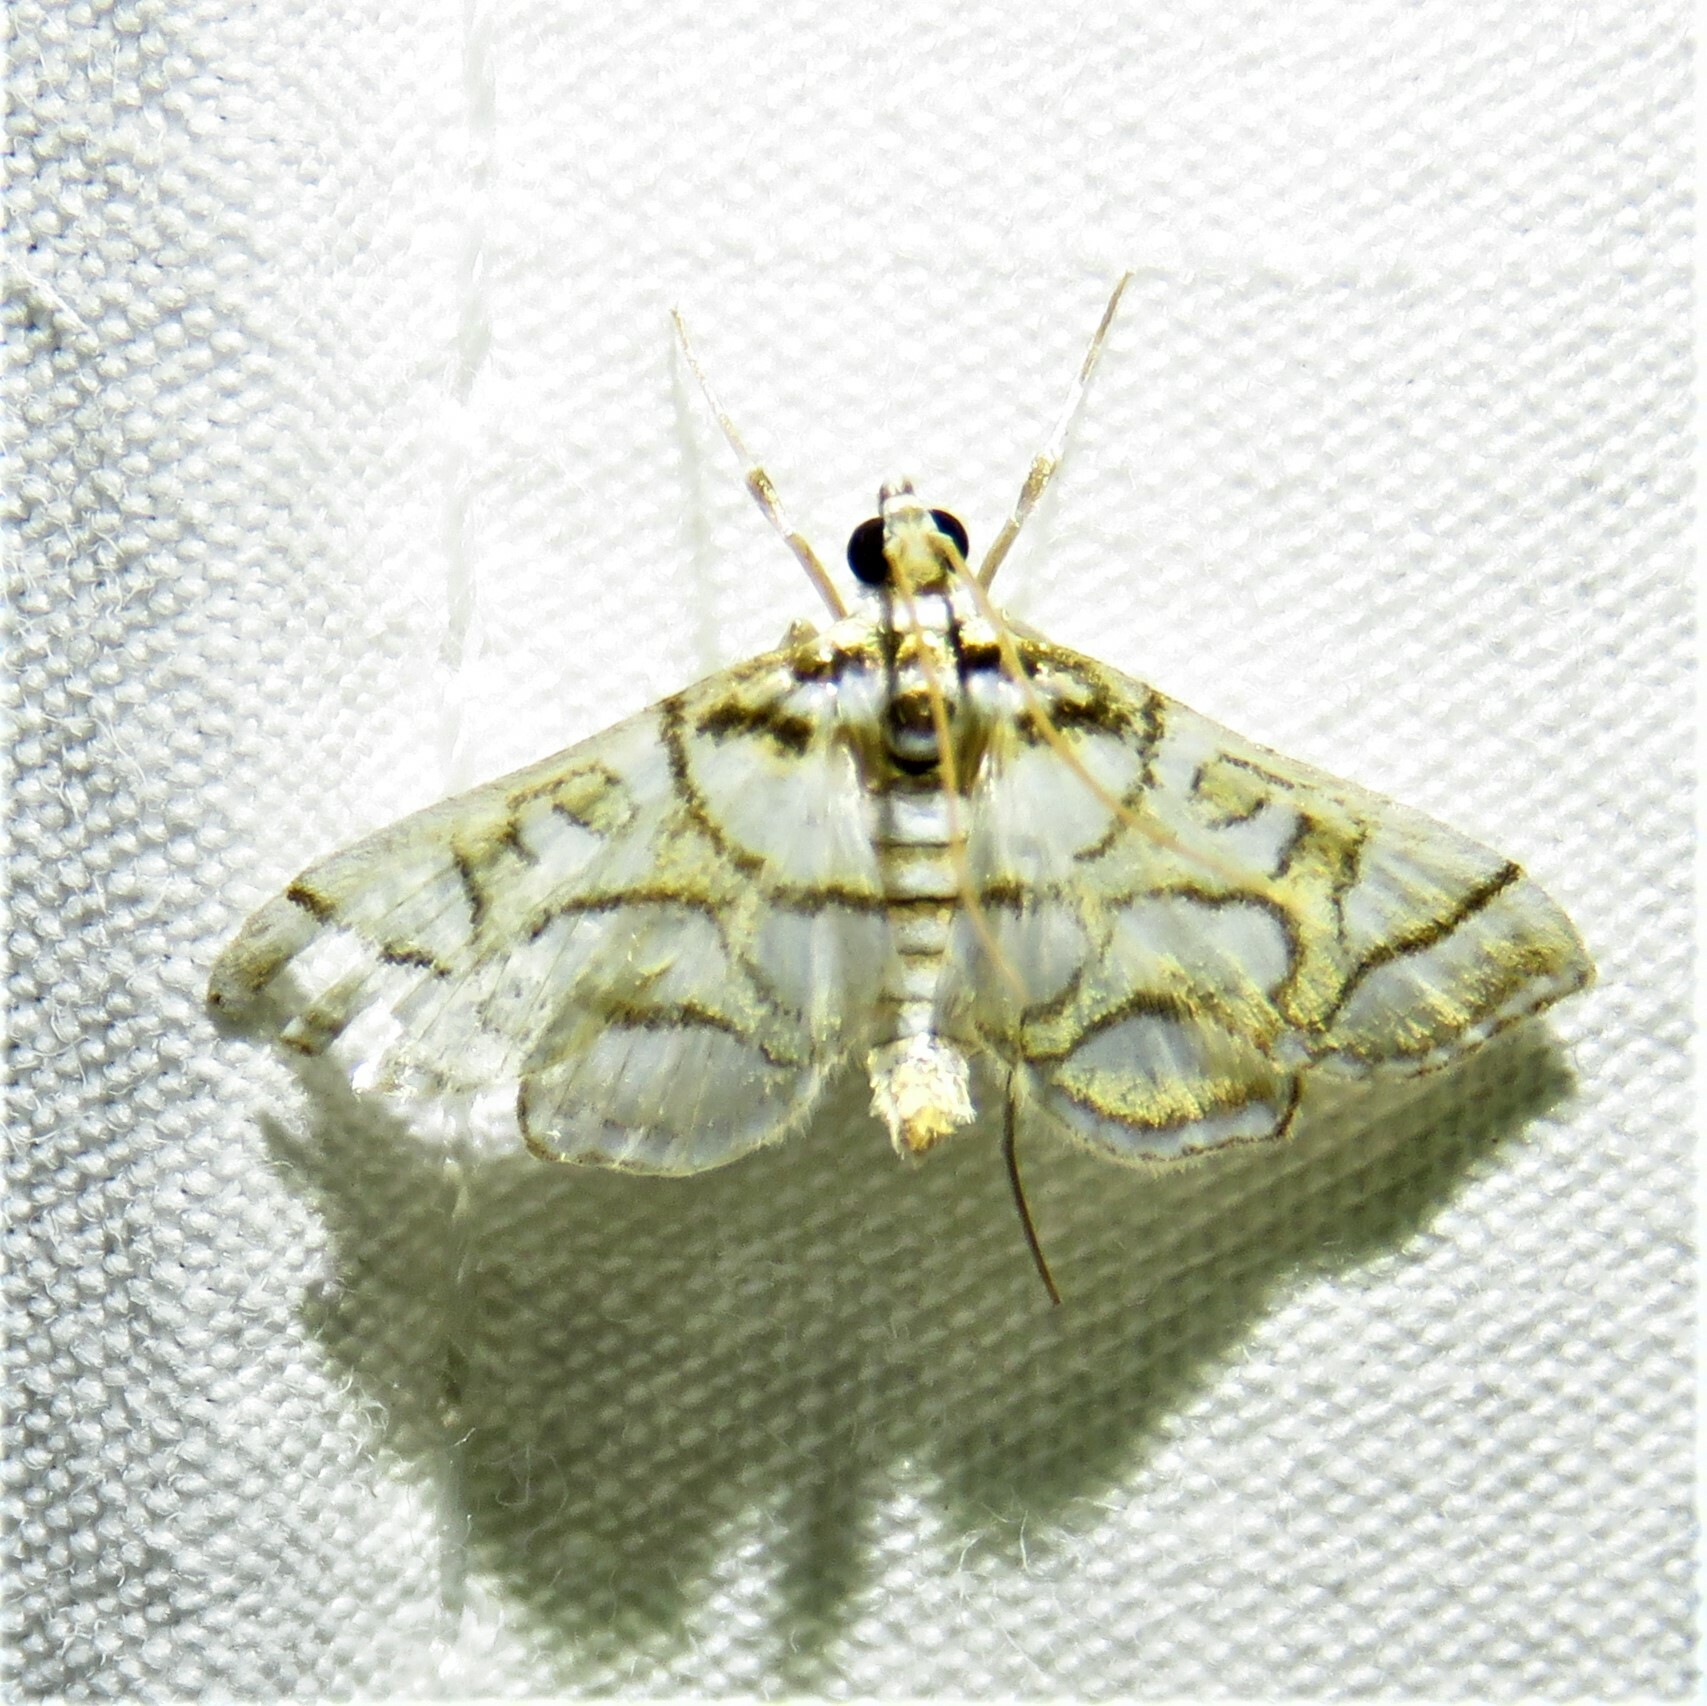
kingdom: Animalia
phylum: Arthropoda
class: Insecta
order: Lepidoptera
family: Crambidae
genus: Pseudopyrausta
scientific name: Pseudopyrausta santatalis
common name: Moth
